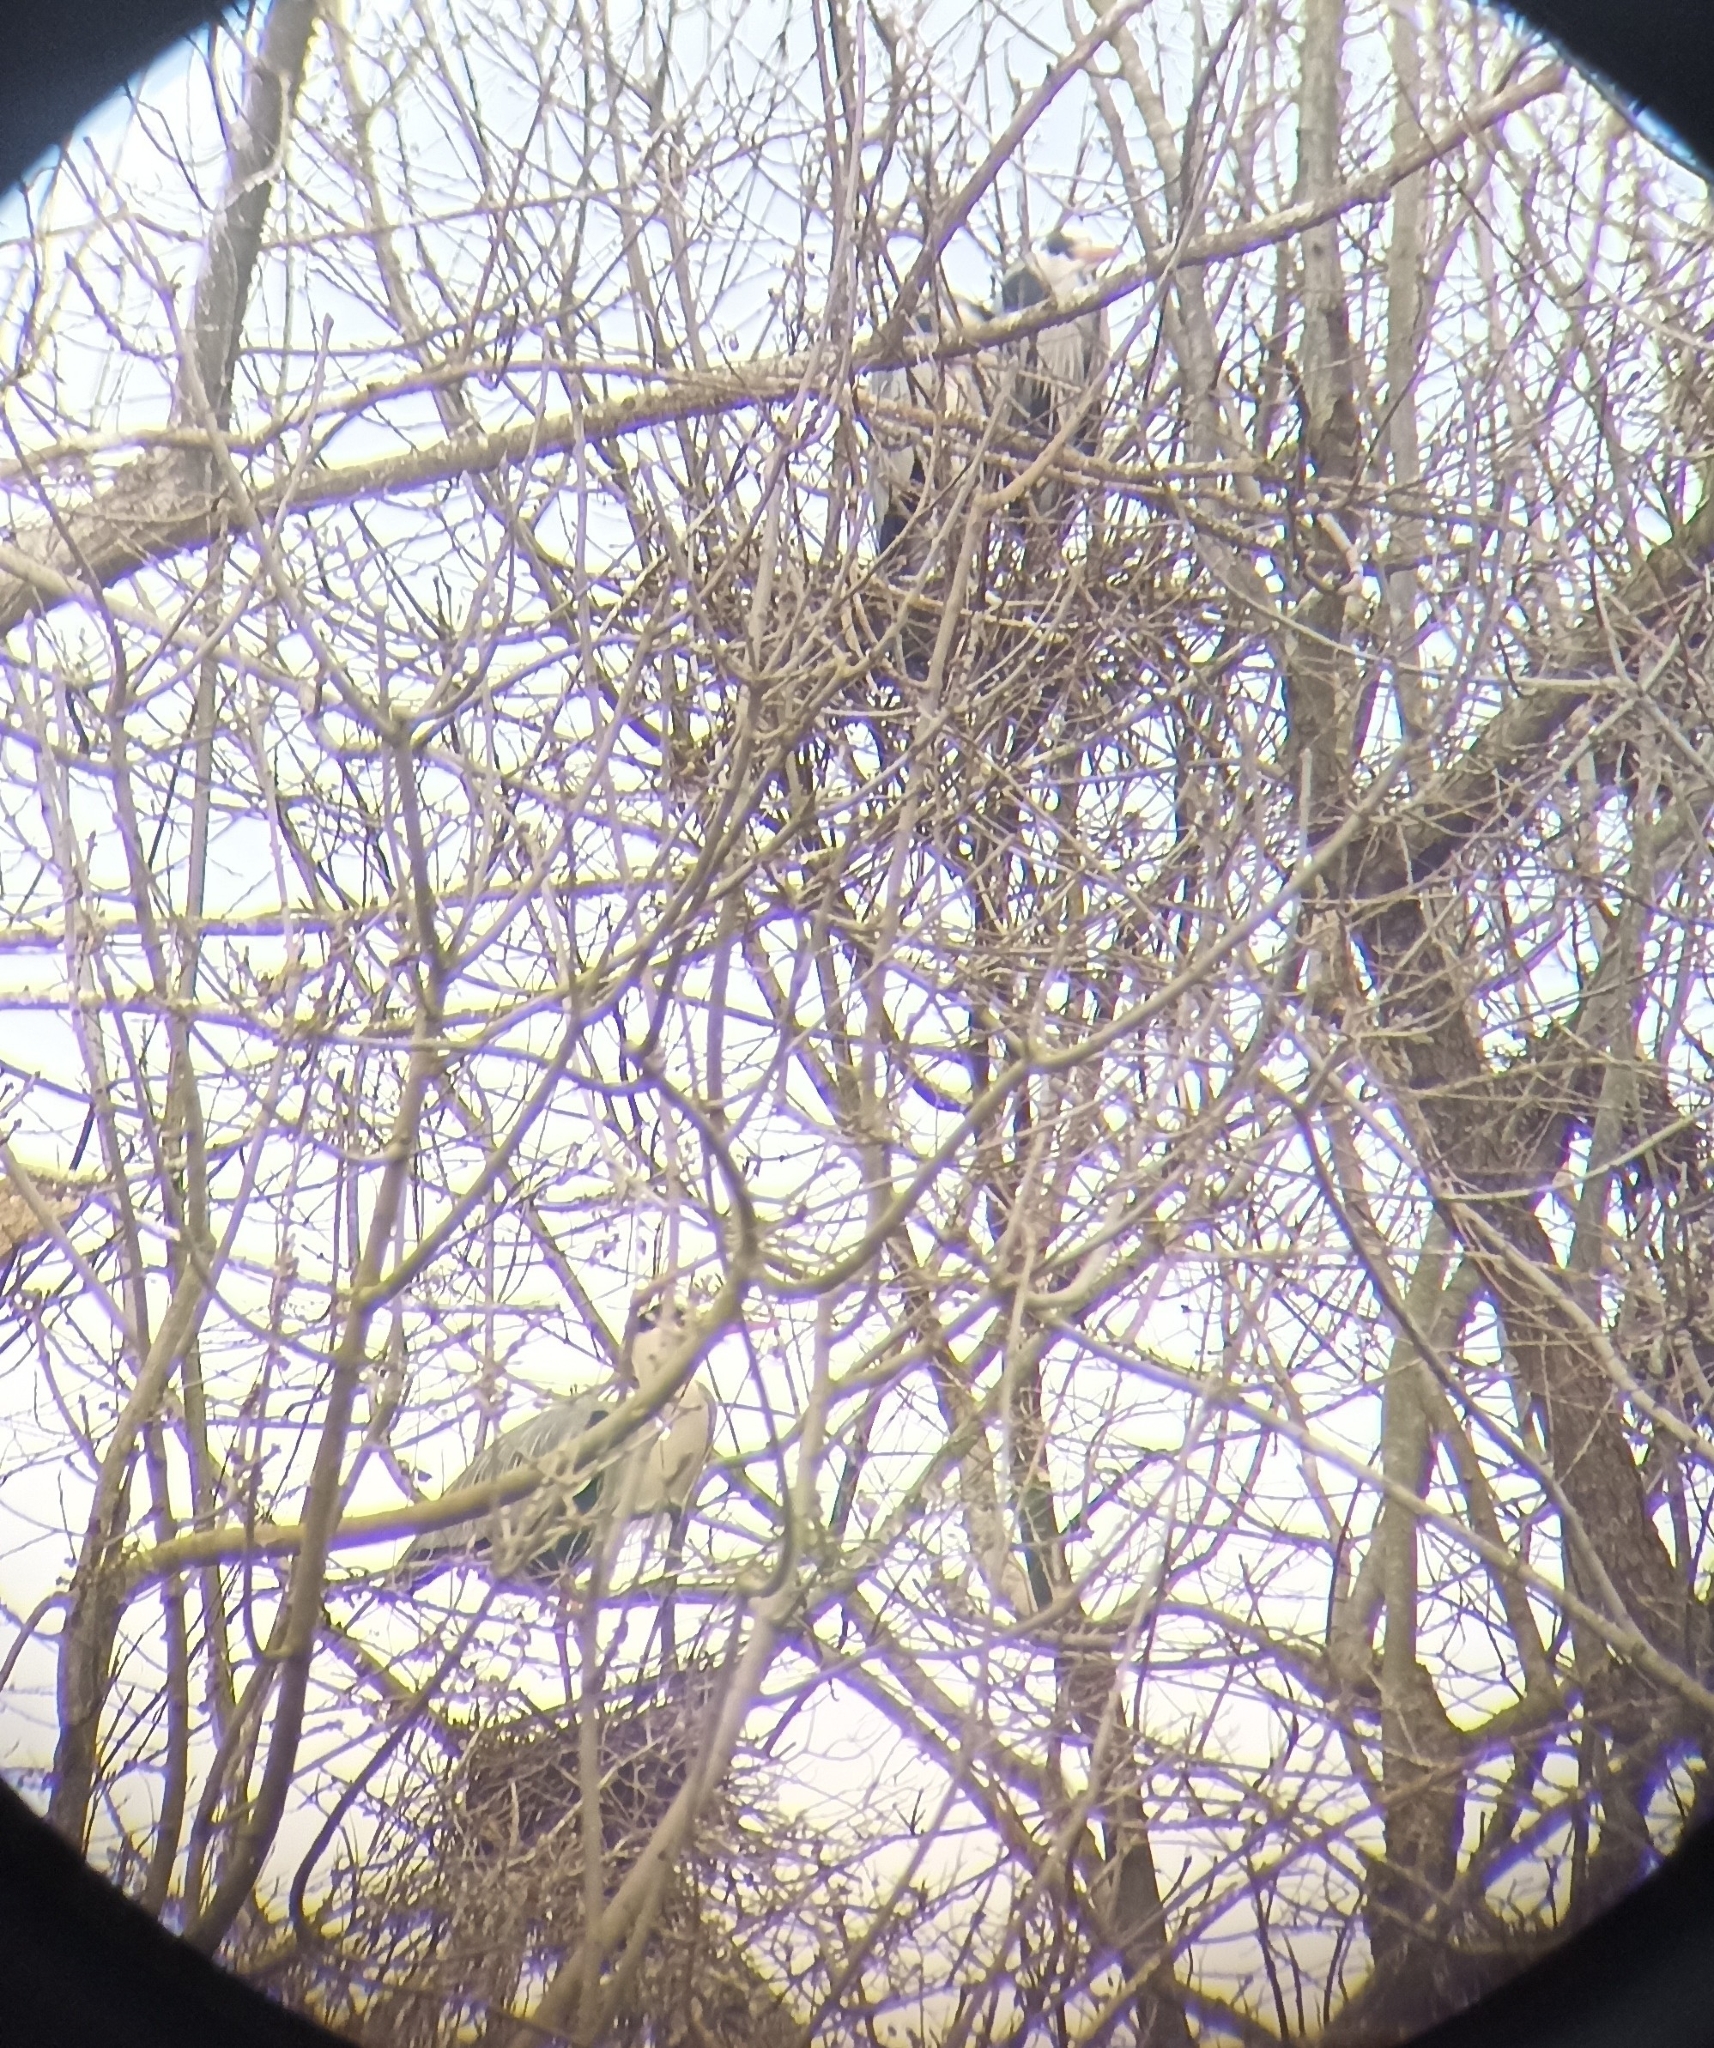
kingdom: Animalia
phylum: Chordata
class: Aves
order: Pelecaniformes
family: Ardeidae
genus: Ardea
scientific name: Ardea cinerea
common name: Grey heron
